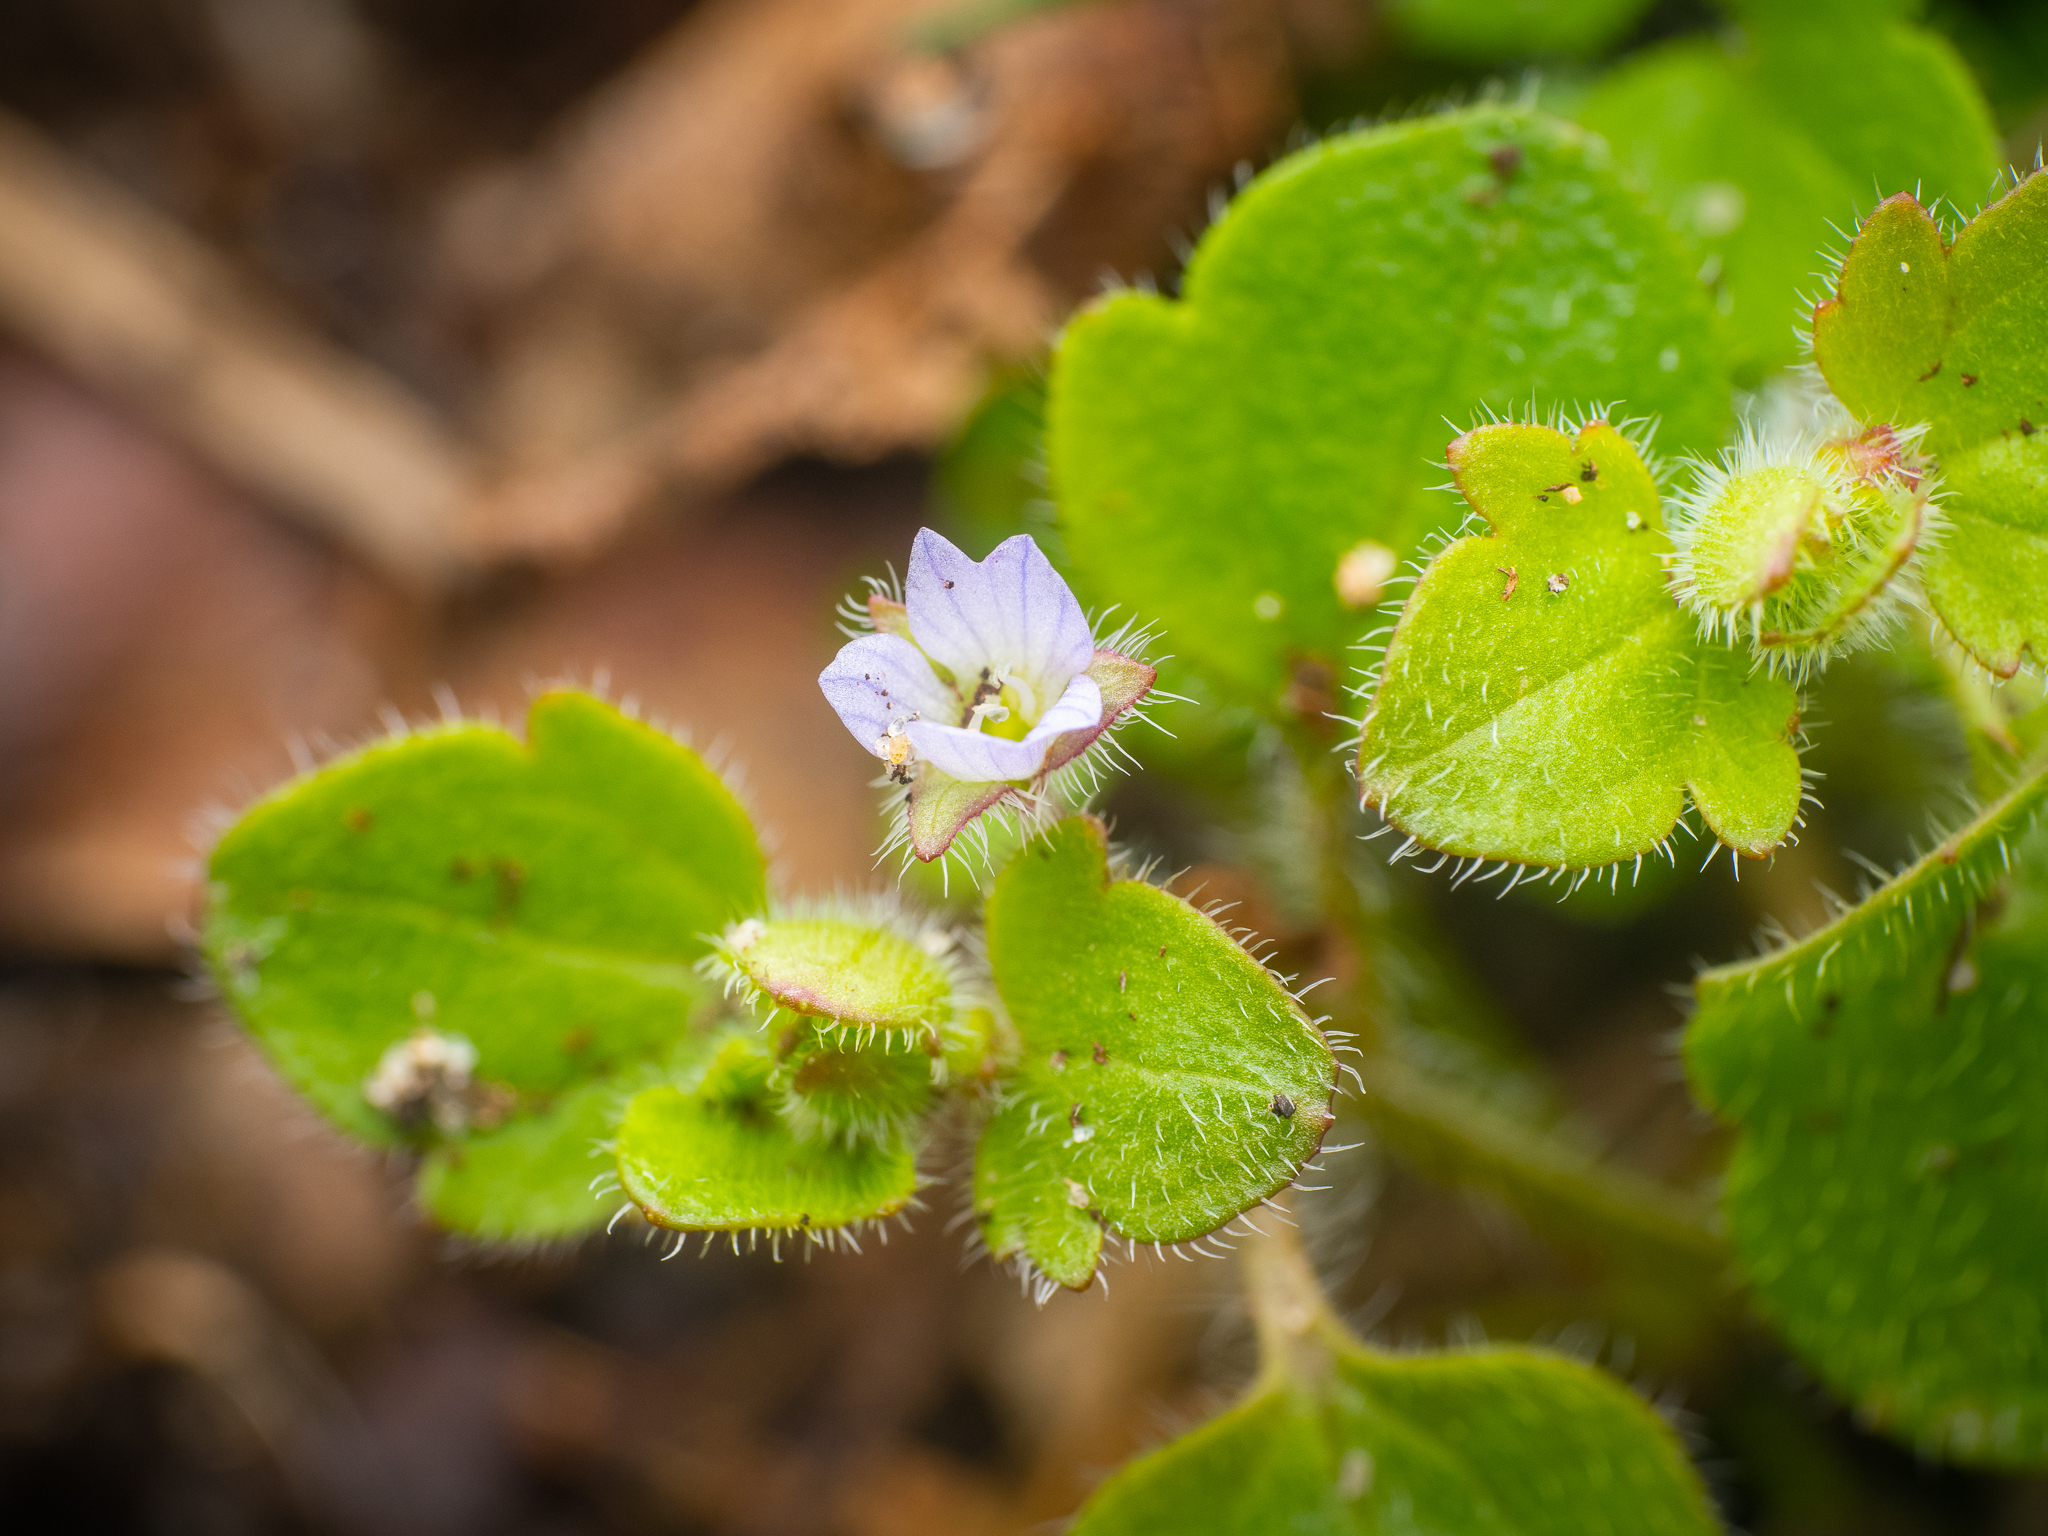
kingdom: Plantae
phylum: Tracheophyta
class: Magnoliopsida
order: Lamiales
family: Plantaginaceae
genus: Veronica
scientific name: Veronica sublobata
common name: False ivy-leaved speedwell
